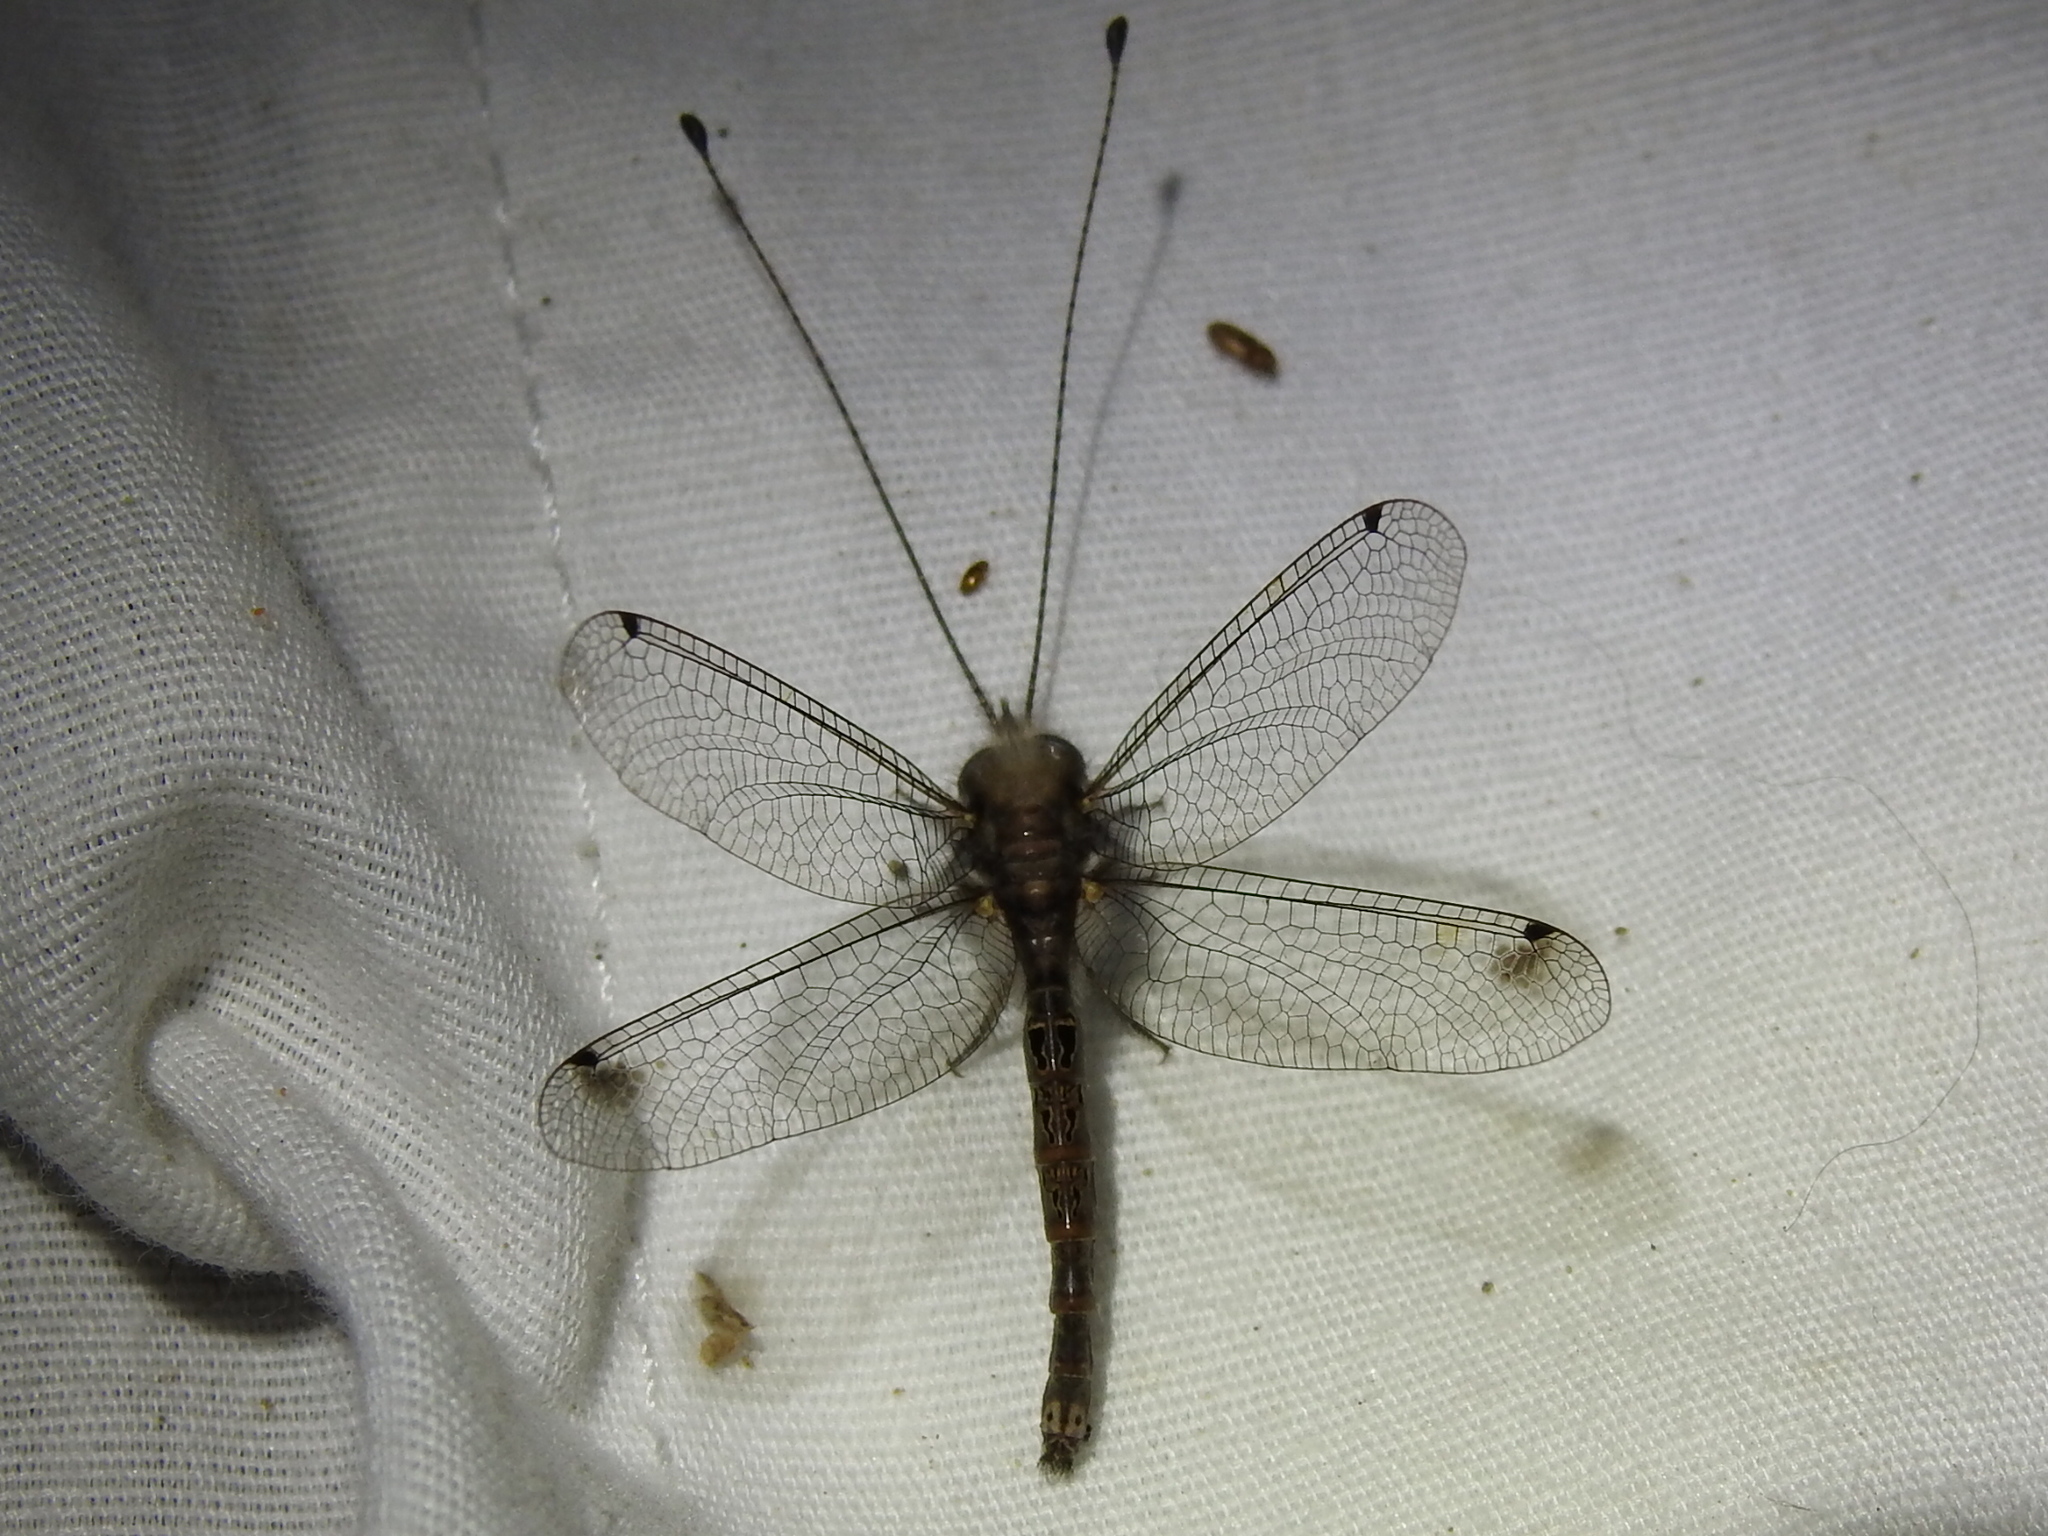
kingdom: Animalia
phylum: Arthropoda
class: Insecta
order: Neuroptera
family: Ascalaphidae
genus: Ululodes
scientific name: Ululodes macleayanus
